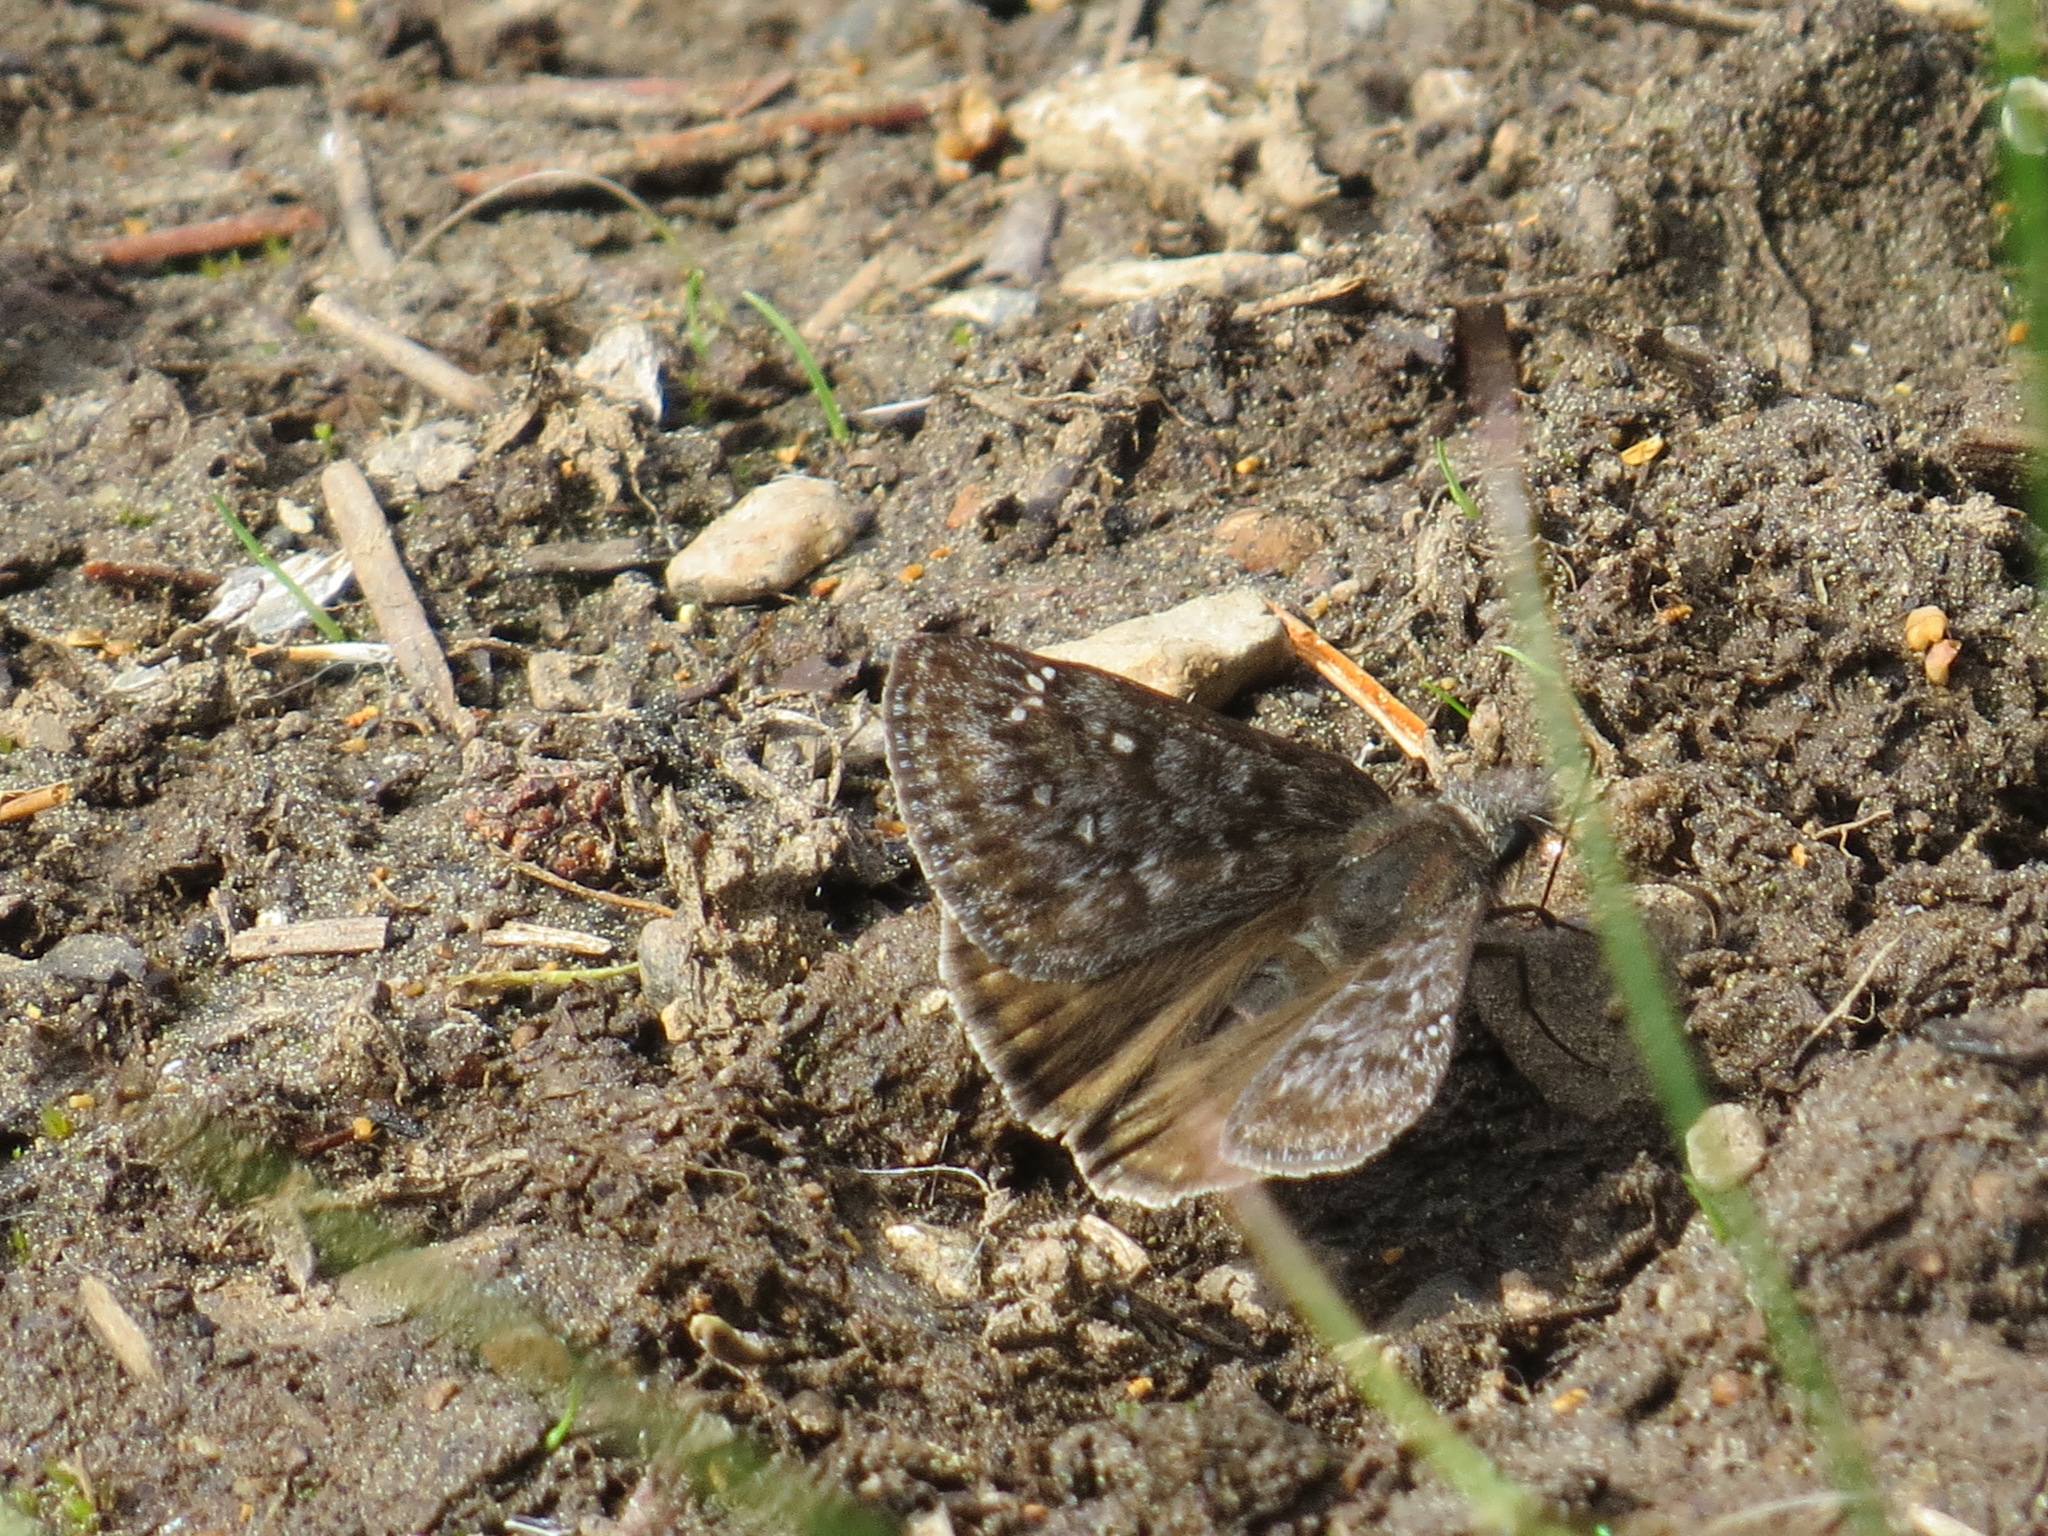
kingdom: Animalia
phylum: Arthropoda
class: Insecta
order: Lepidoptera
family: Hesperiidae
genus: Erynnis
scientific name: Erynnis propertius
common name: Propertius duskywing
